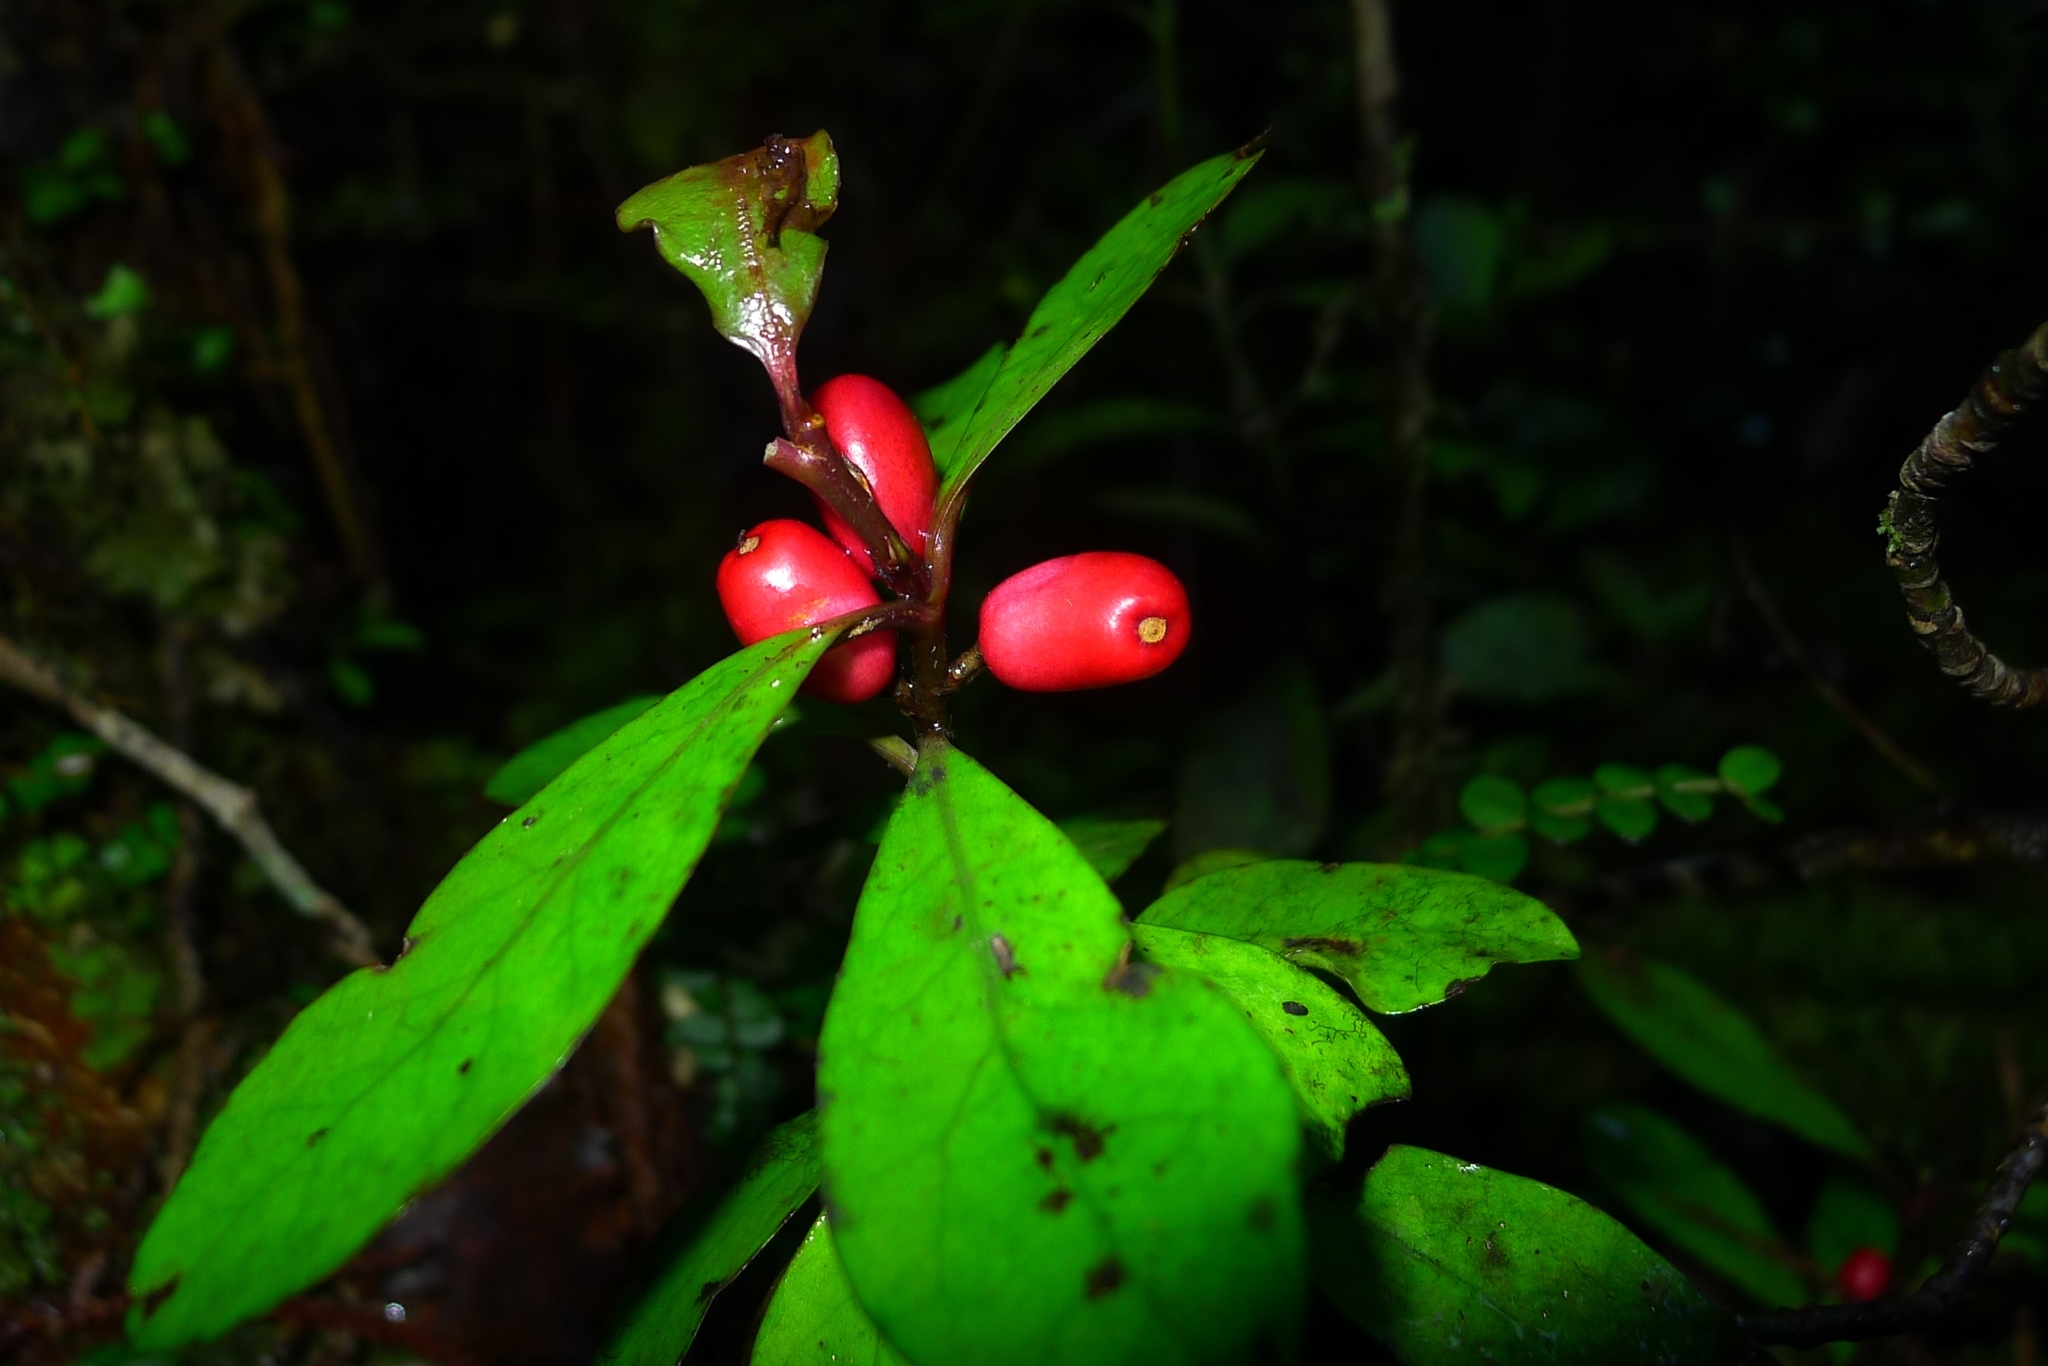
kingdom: Plantae
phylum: Tracheophyta
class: Magnoliopsida
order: Asterales
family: Alseuosmiaceae
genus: Alseuosmia
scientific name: Alseuosmia pusilla
